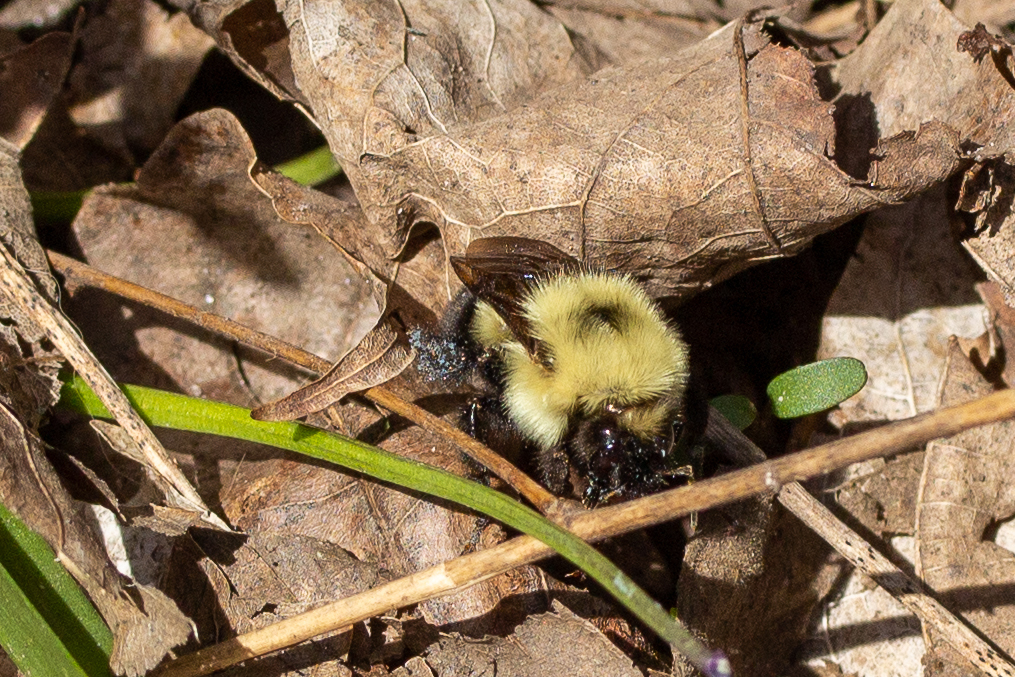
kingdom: Animalia
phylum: Arthropoda
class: Insecta
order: Hymenoptera
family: Apidae
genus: Bombus
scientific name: Bombus bimaculatus
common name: Two-spotted bumble bee
